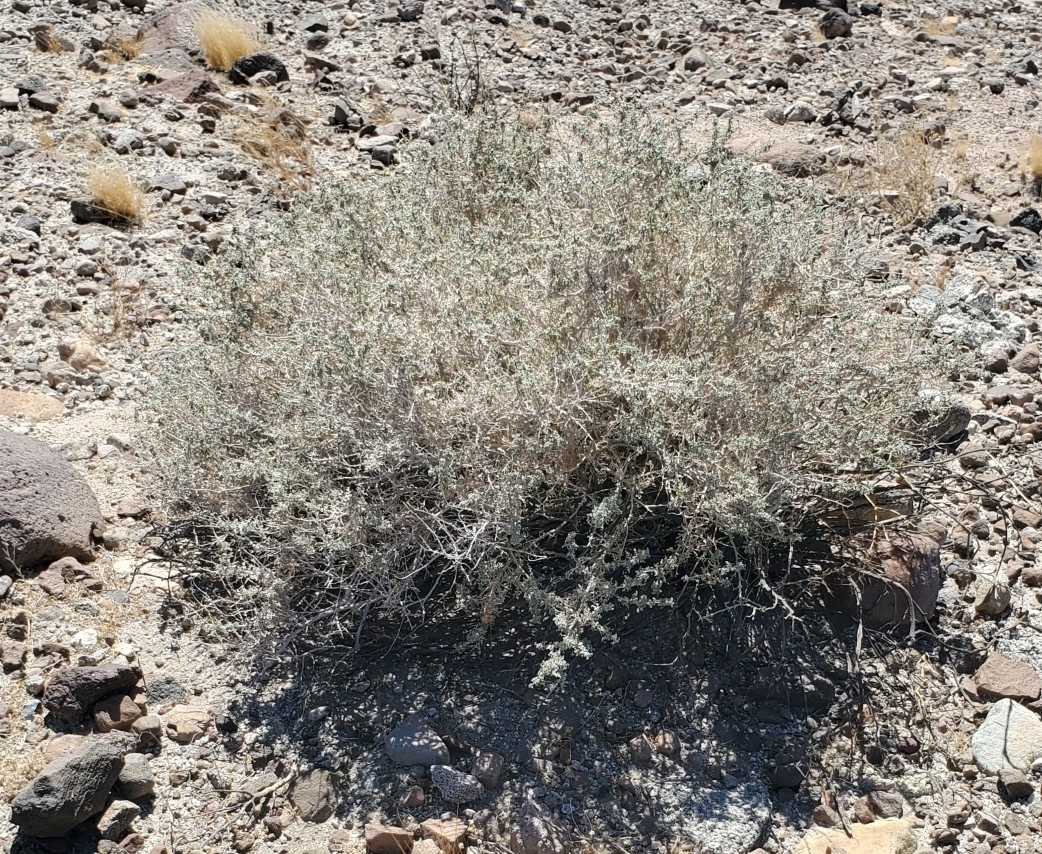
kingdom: Plantae
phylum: Tracheophyta
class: Magnoliopsida
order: Asterales
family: Asteraceae
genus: Ambrosia
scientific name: Ambrosia dumosa
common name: Bur-sage
